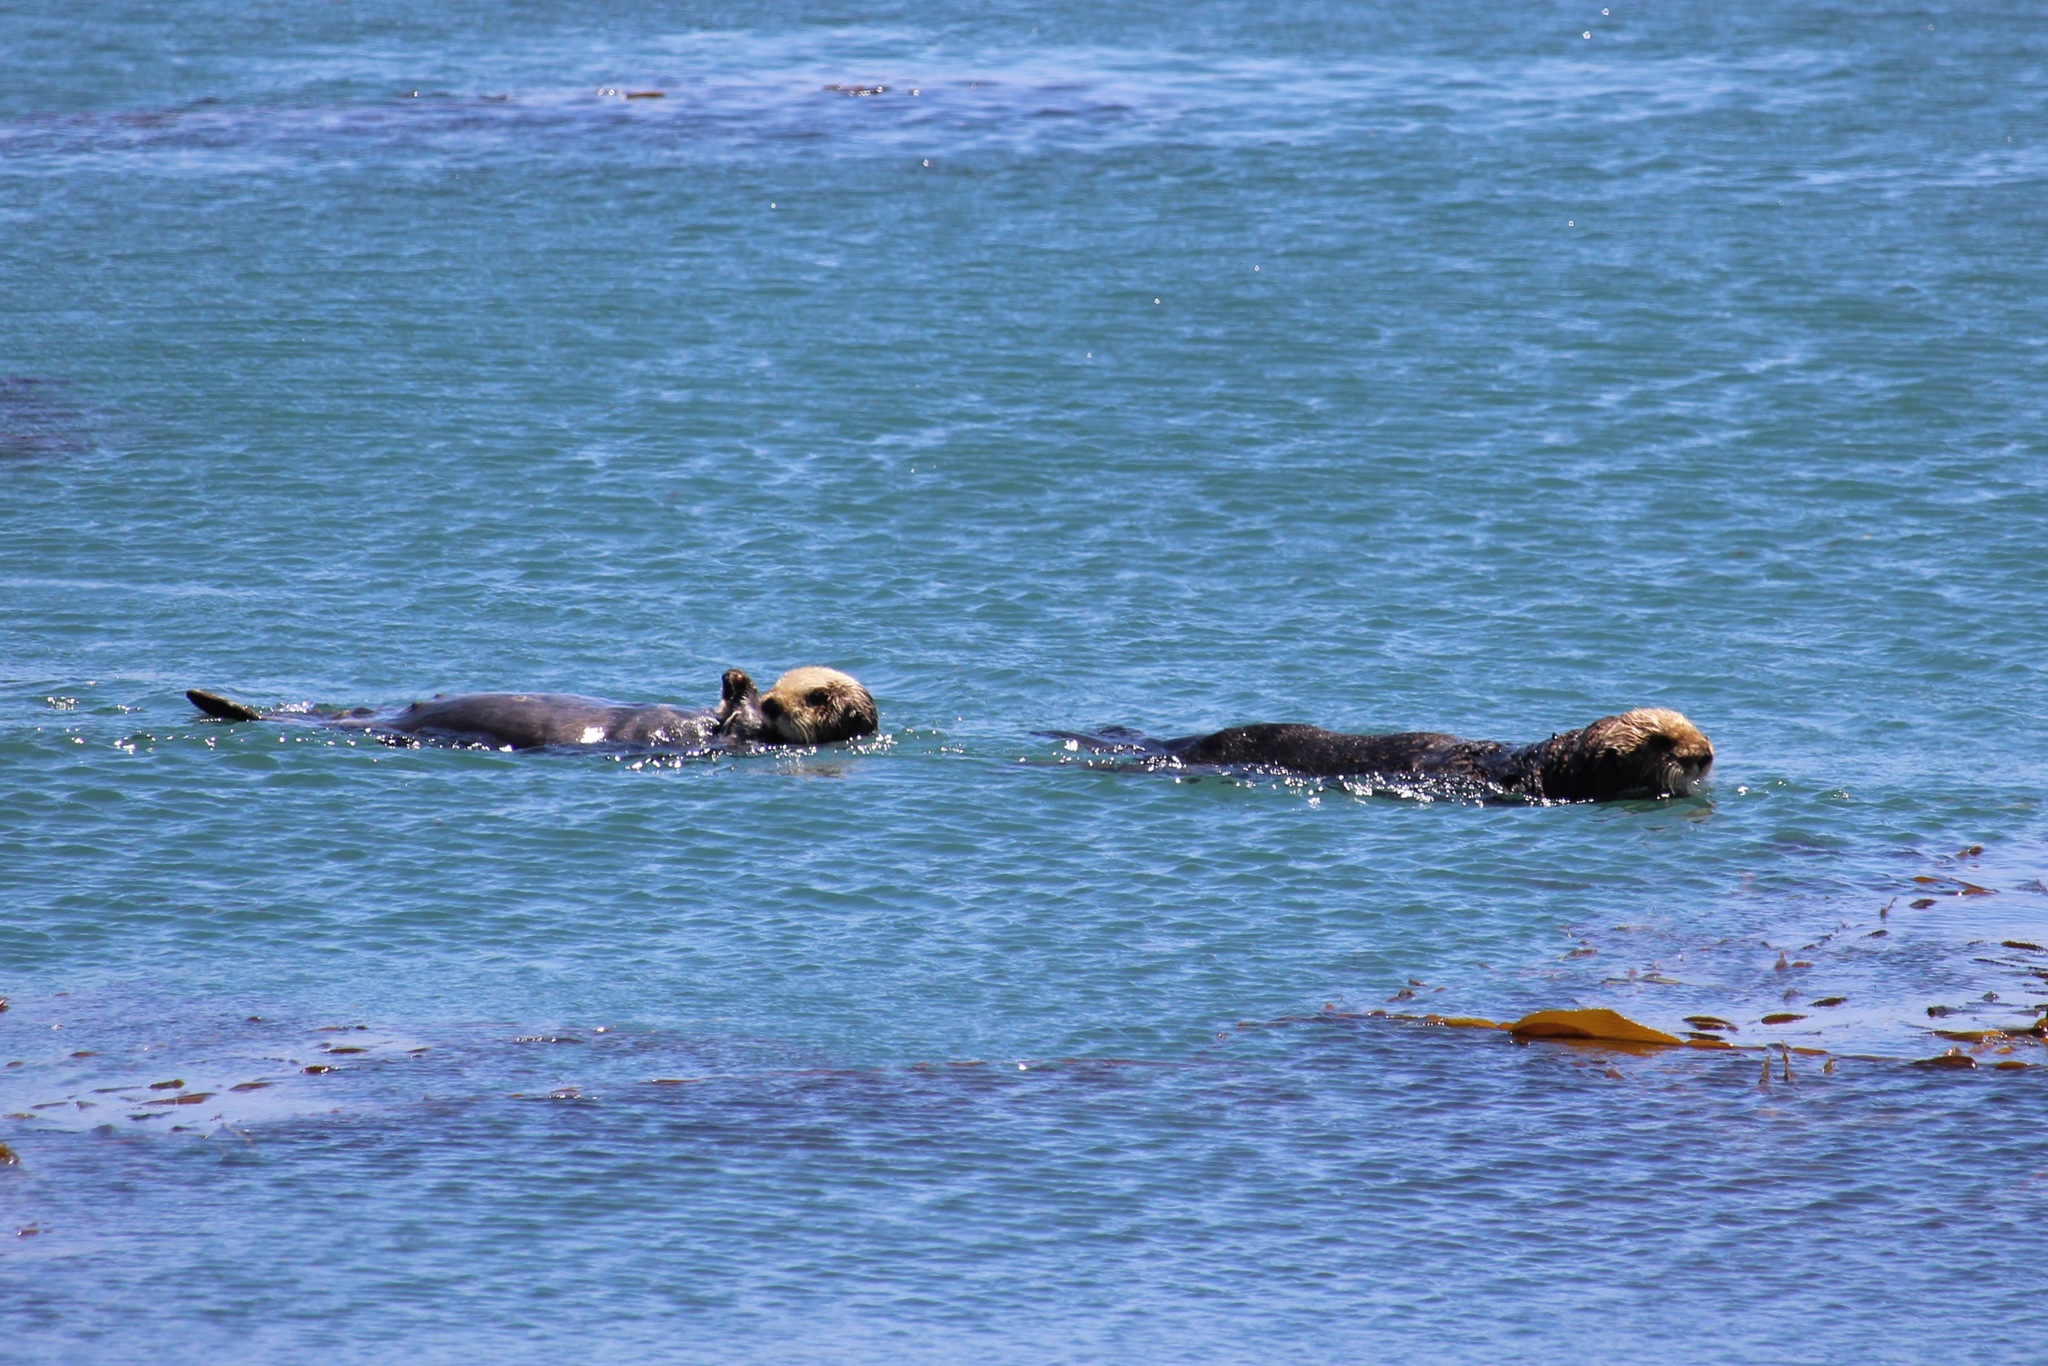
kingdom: Animalia
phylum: Chordata
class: Mammalia
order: Carnivora
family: Mustelidae
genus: Enhydra
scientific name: Enhydra lutris
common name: Sea otter
